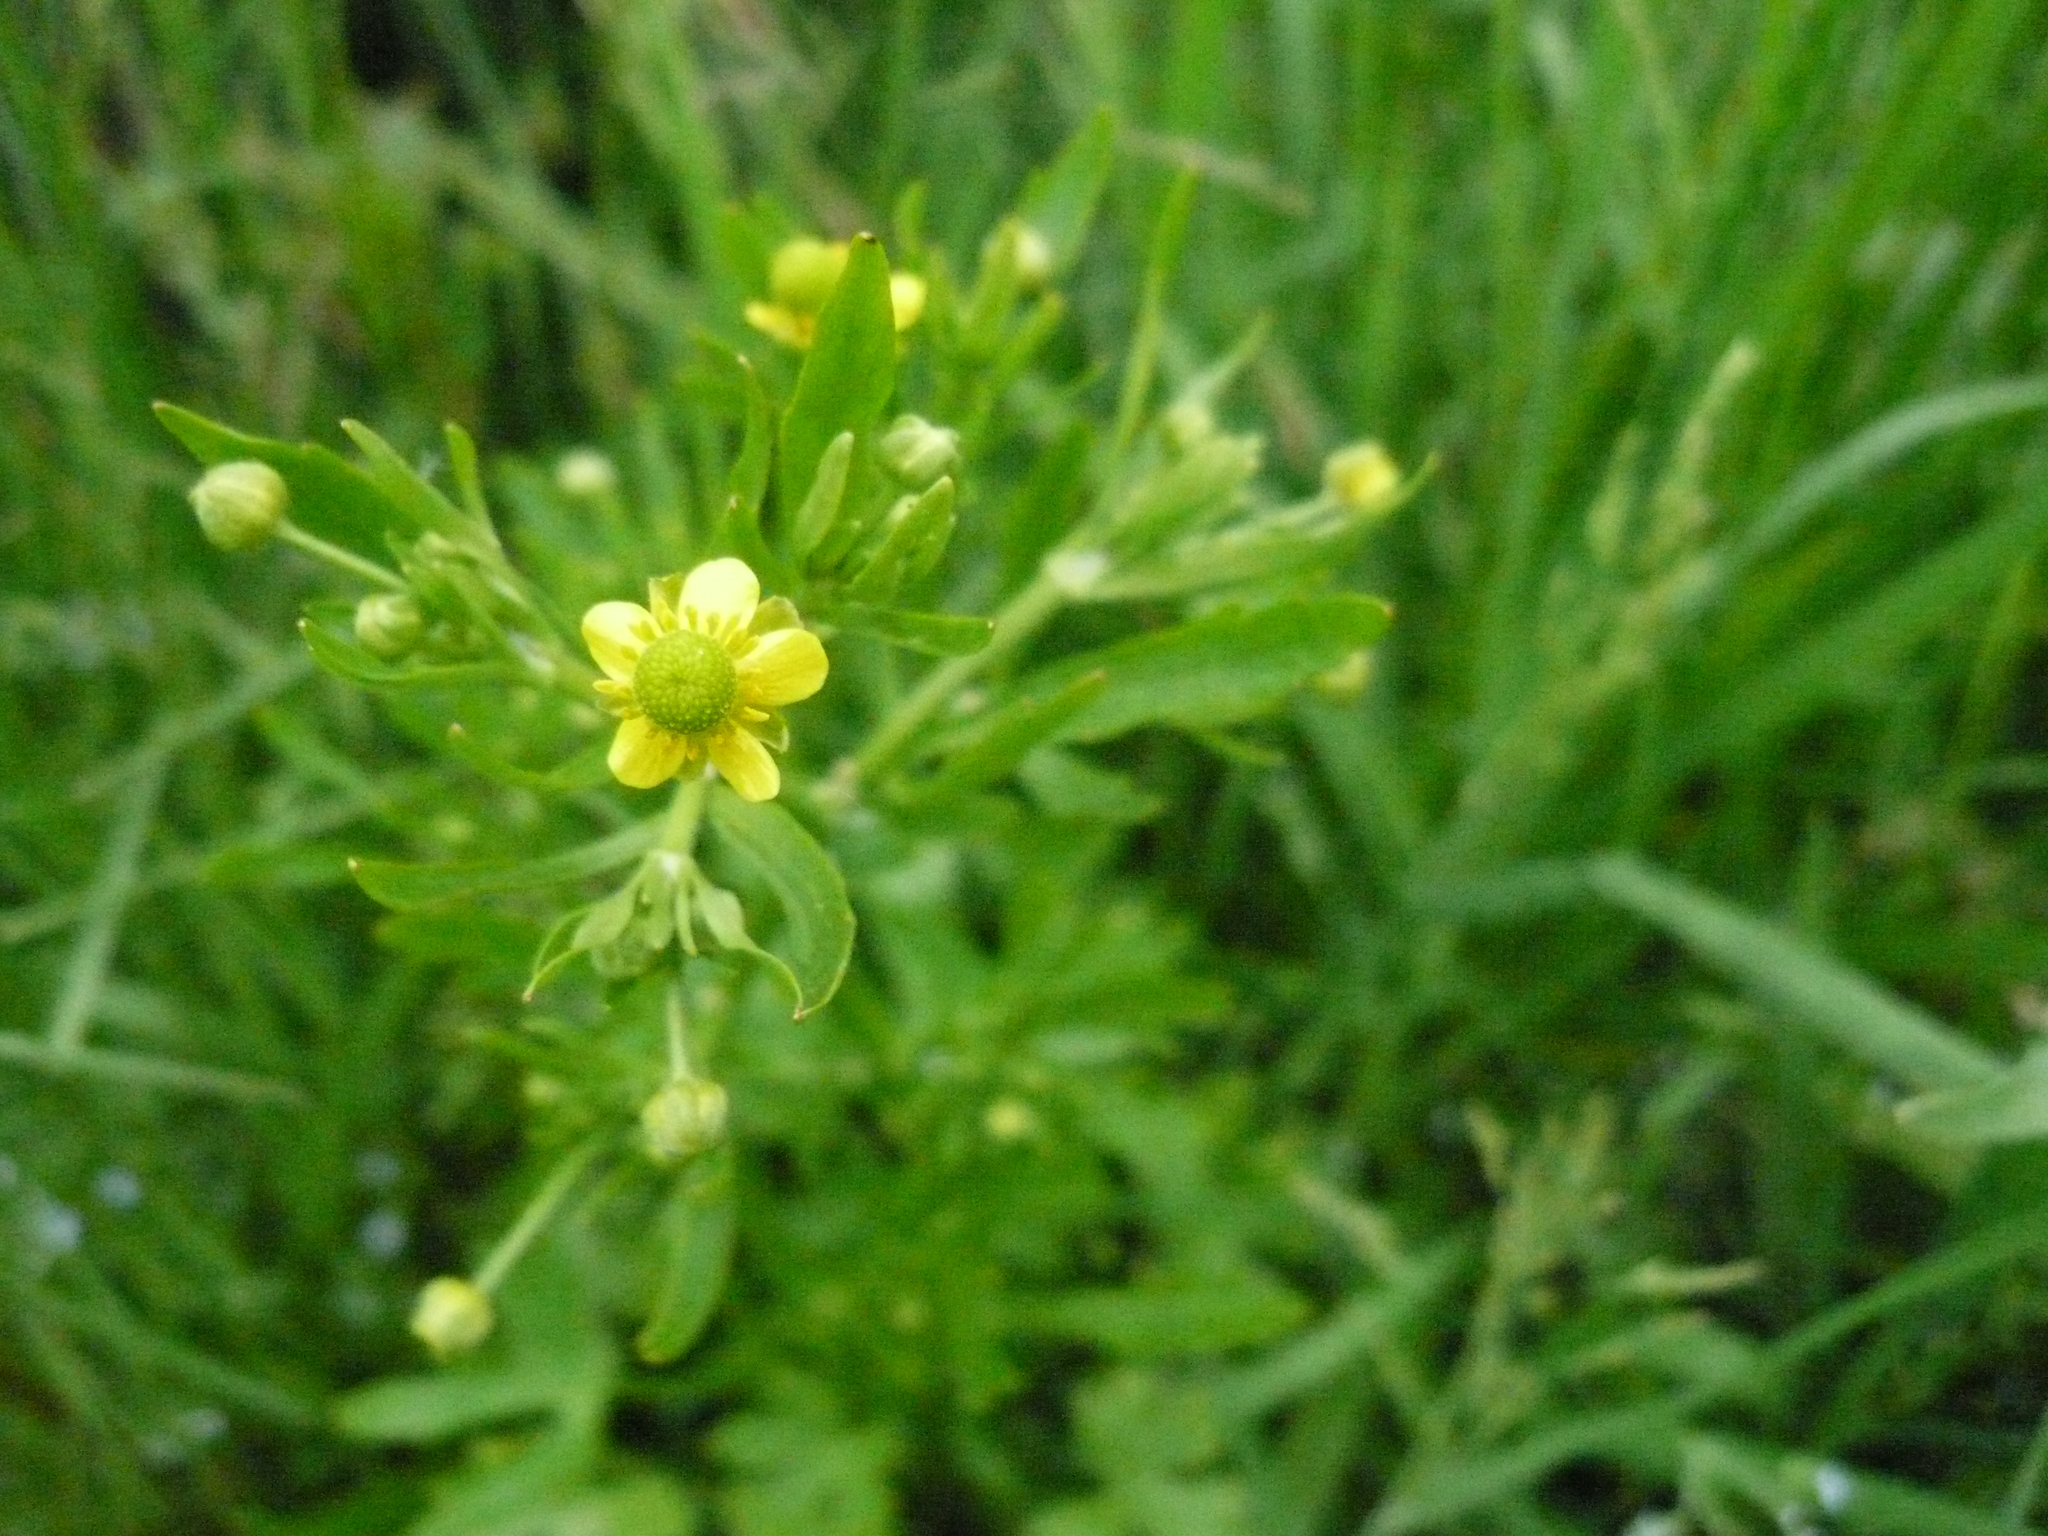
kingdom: Plantae
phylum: Tracheophyta
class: Magnoliopsida
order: Ranunculales
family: Ranunculaceae
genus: Ranunculus
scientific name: Ranunculus sceleratus
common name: Celery-leaved buttercup
